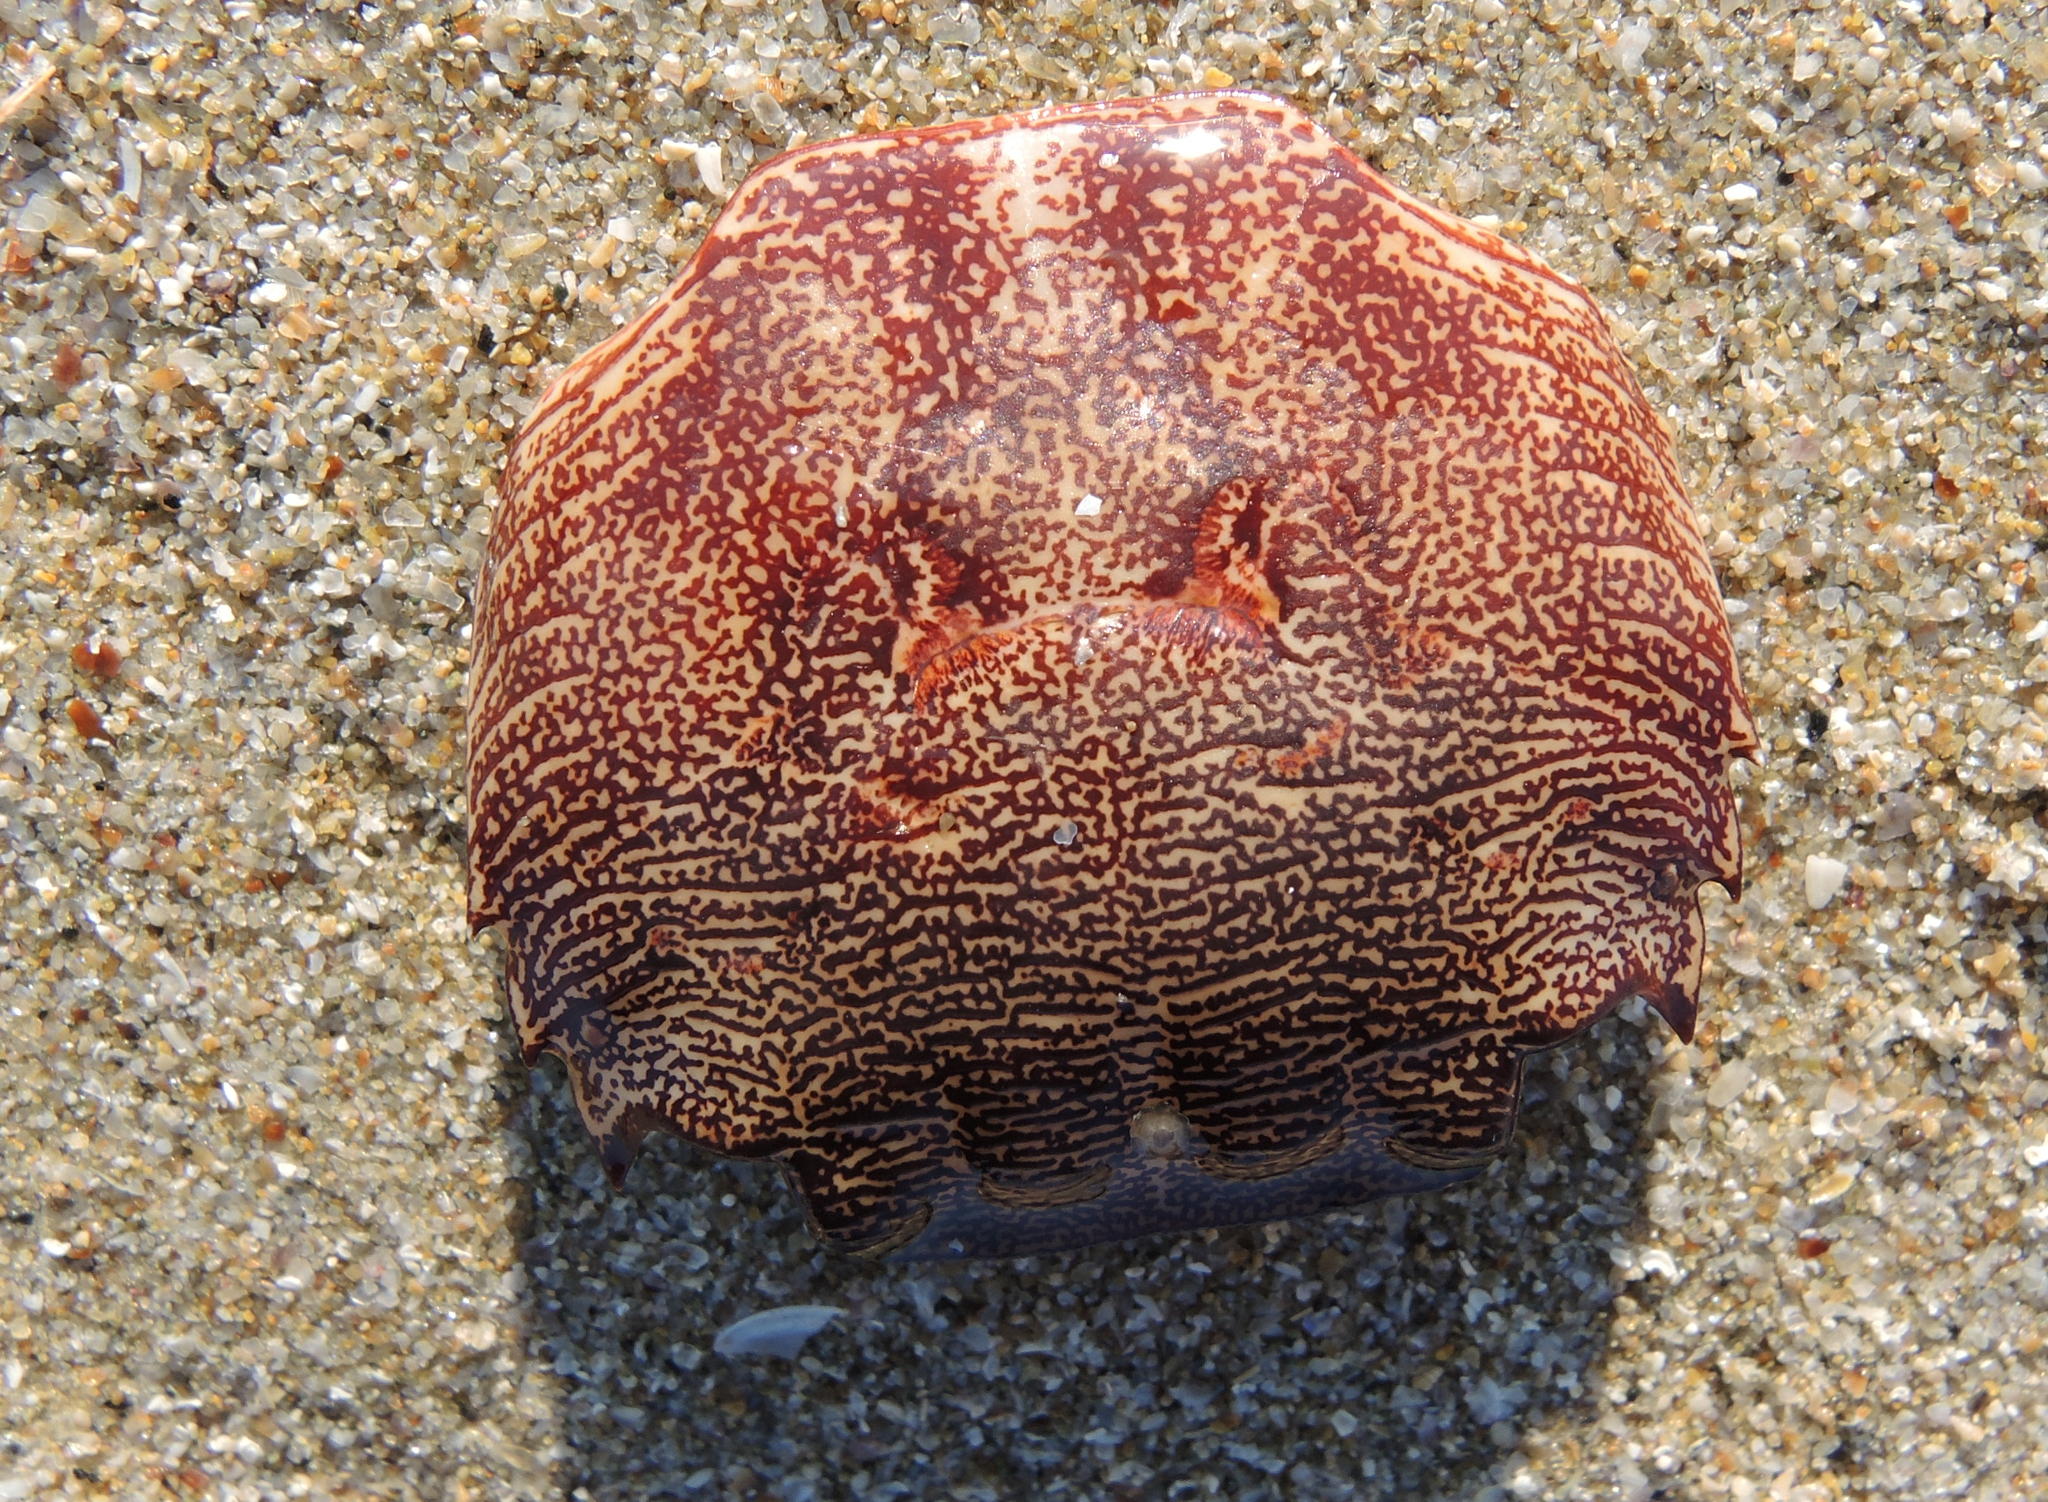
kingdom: Animalia
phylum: Arthropoda
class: Malacostraca
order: Decapoda
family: Grapsidae
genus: Pachygrapsus
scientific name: Pachygrapsus marmoratus
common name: Marbled rock crab
